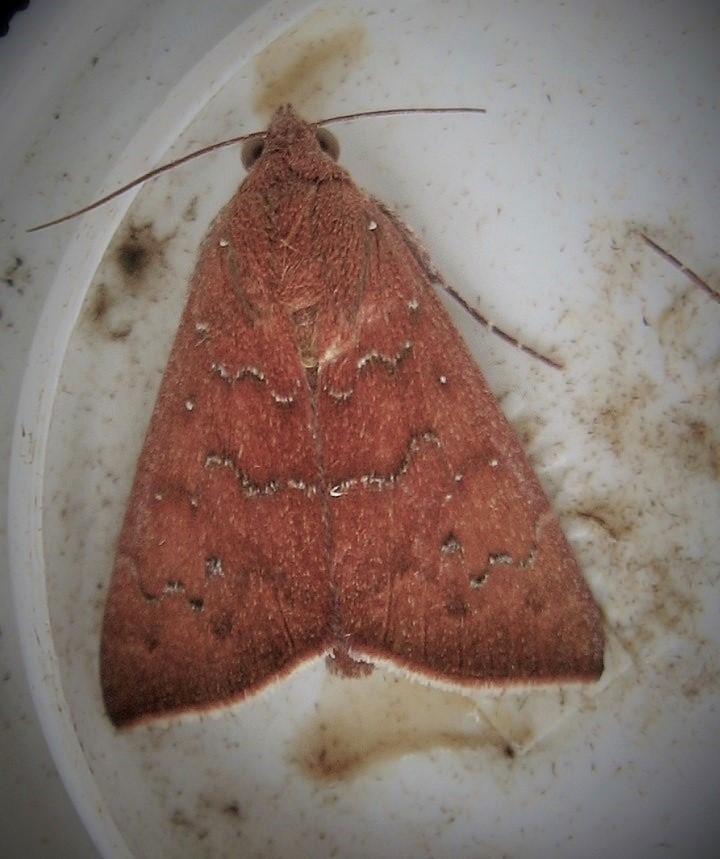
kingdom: Animalia
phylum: Arthropoda
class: Insecta
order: Lepidoptera
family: Erebidae
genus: Anomis
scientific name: Anomis illita
